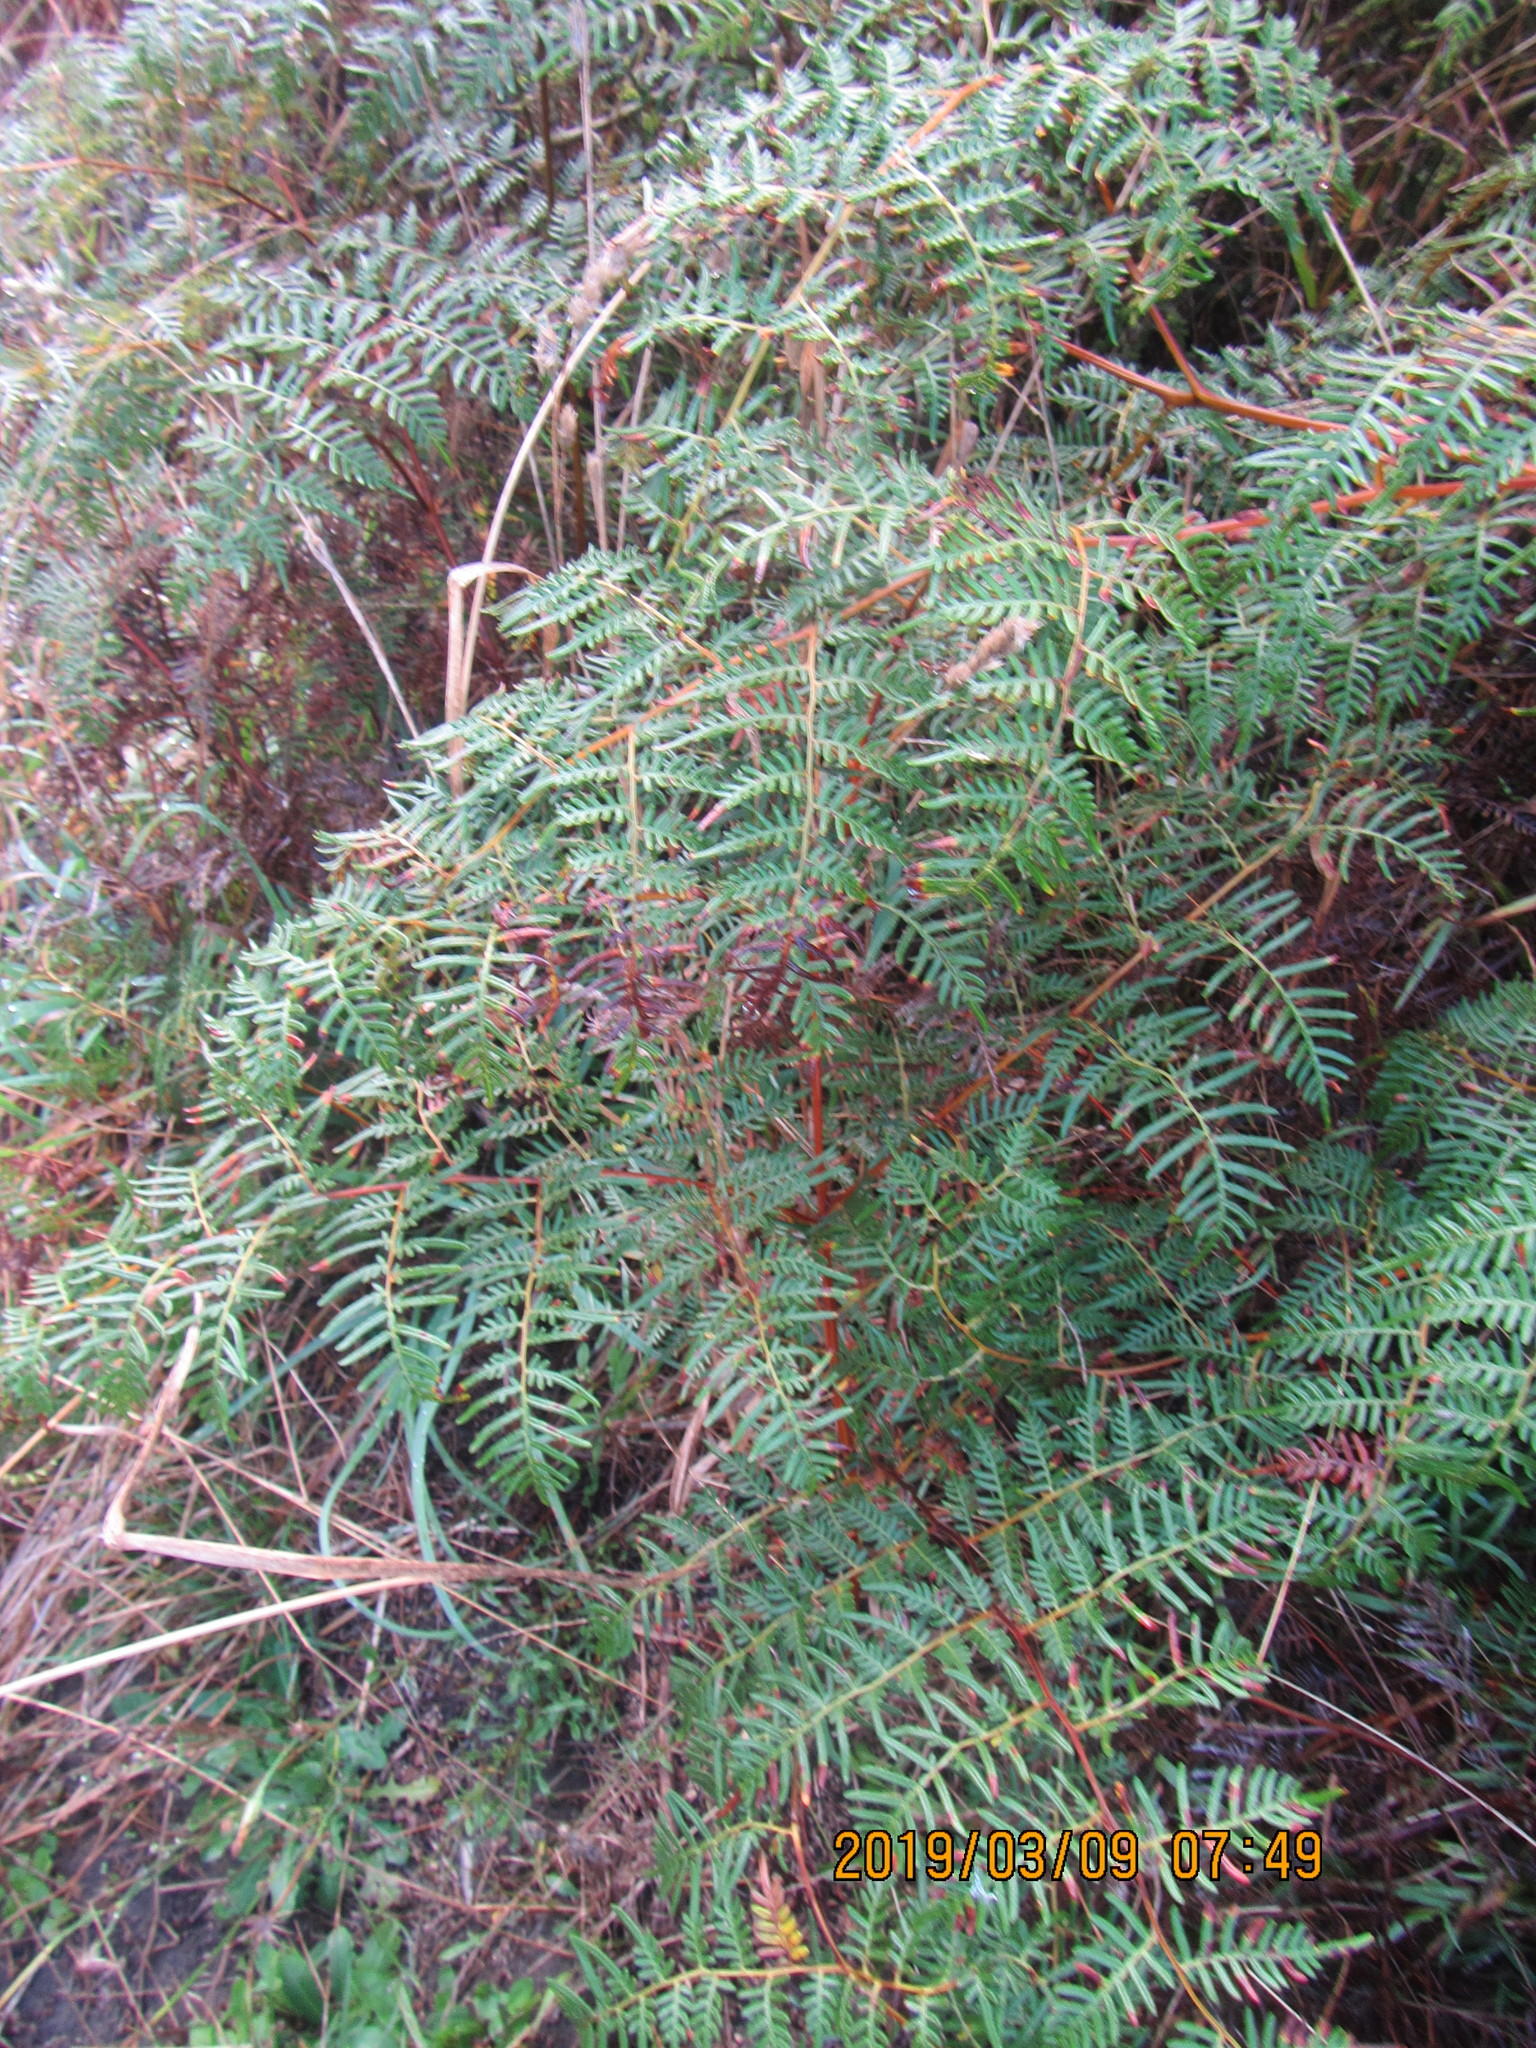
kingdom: Plantae
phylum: Tracheophyta
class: Polypodiopsida
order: Polypodiales
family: Dennstaedtiaceae
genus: Pteridium
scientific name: Pteridium esculentum
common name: Bracken fern
